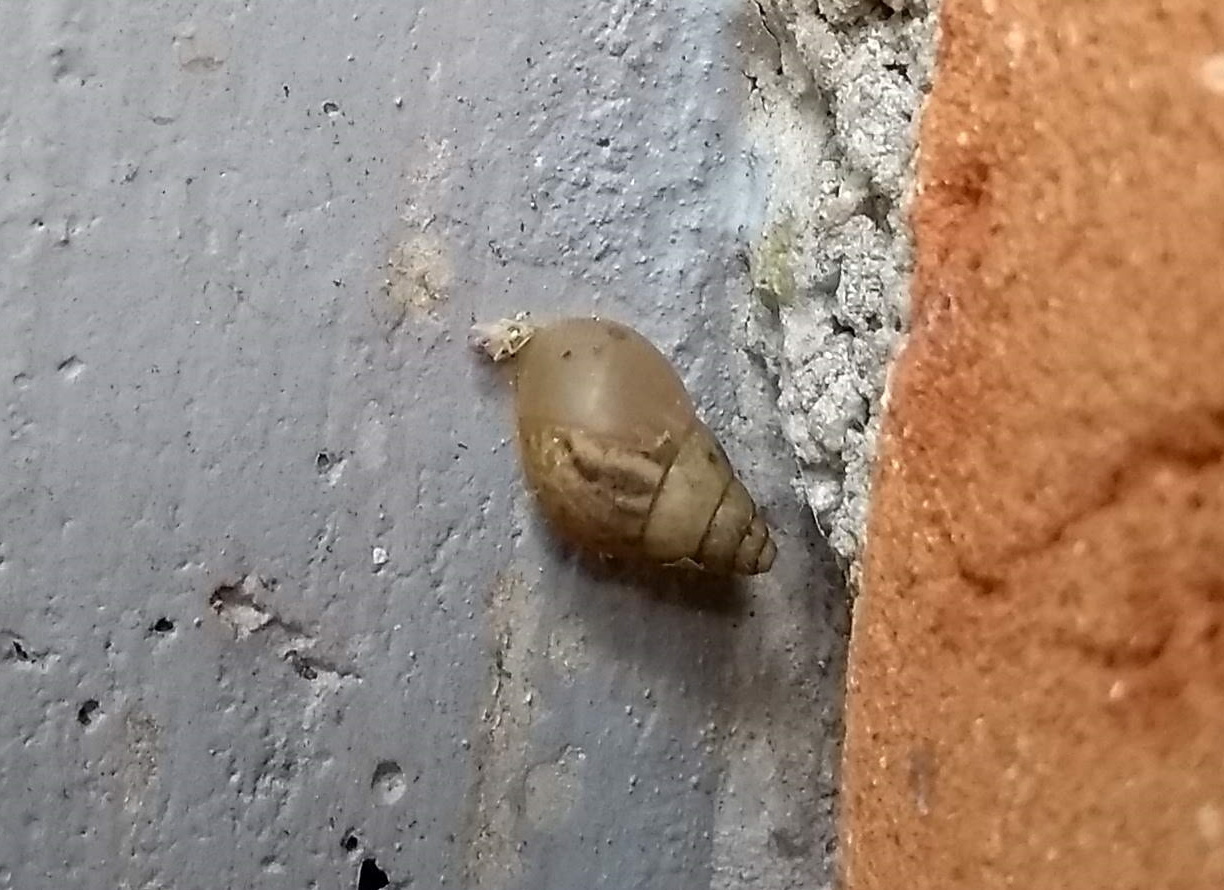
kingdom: Animalia
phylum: Mollusca
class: Gastropoda
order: Stylommatophora
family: Bulimulidae
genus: Bulimulus
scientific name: Bulimulus tenuissimus
